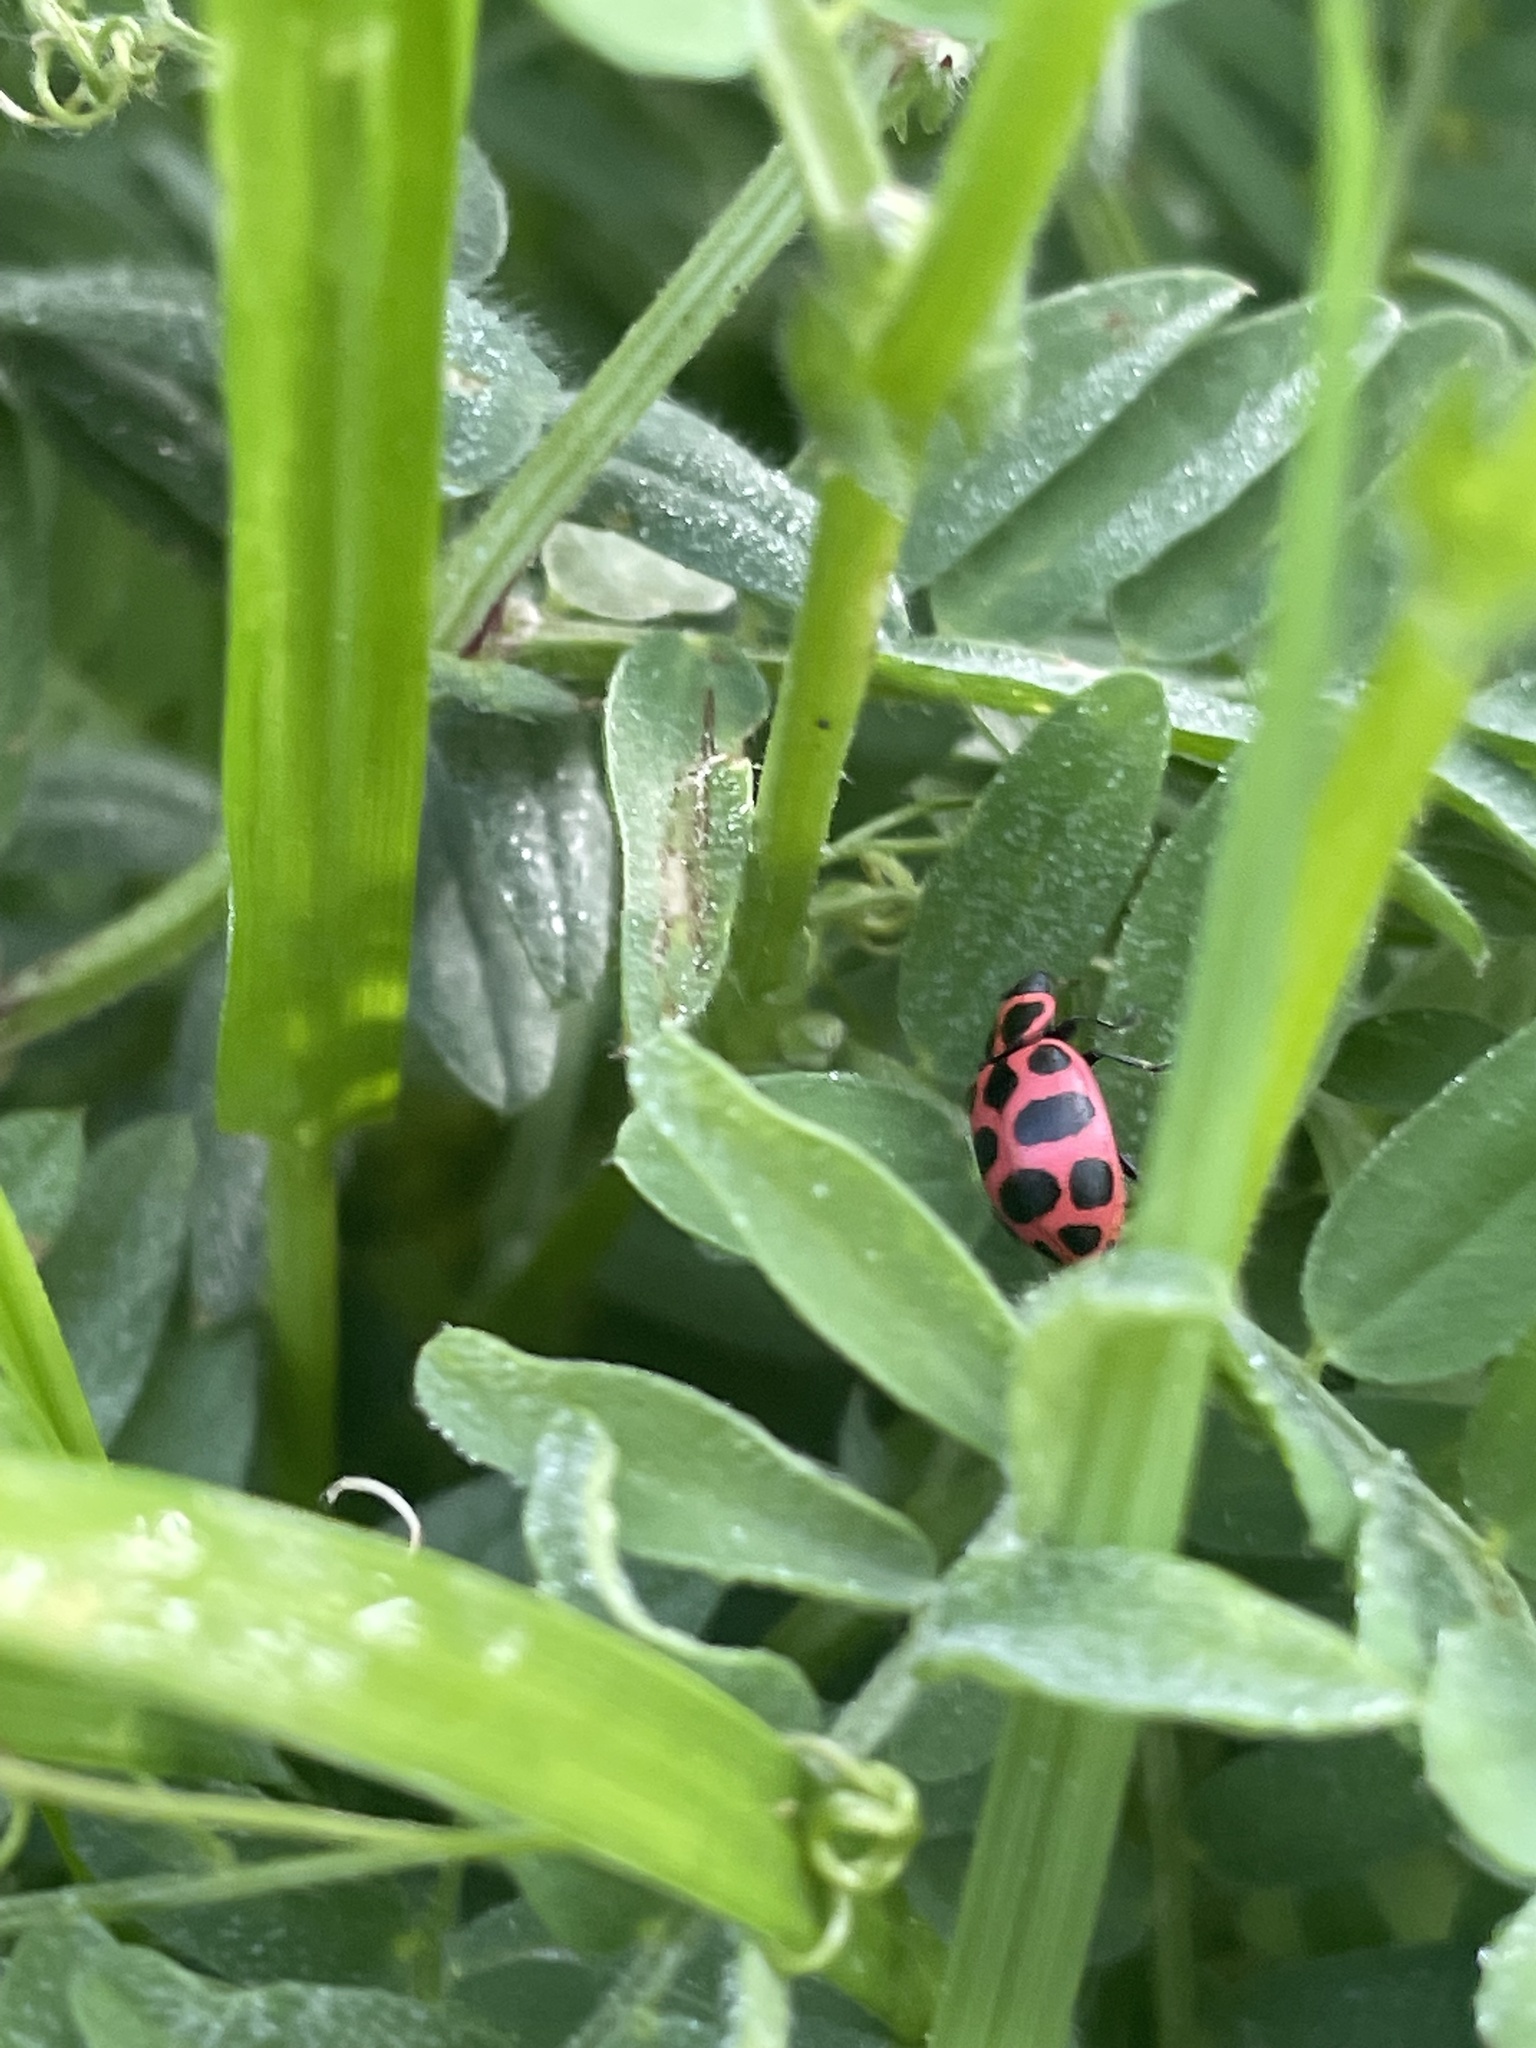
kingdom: Animalia
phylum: Arthropoda
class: Insecta
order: Coleoptera
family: Coccinellidae
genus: Coleomegilla
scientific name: Coleomegilla maculata
